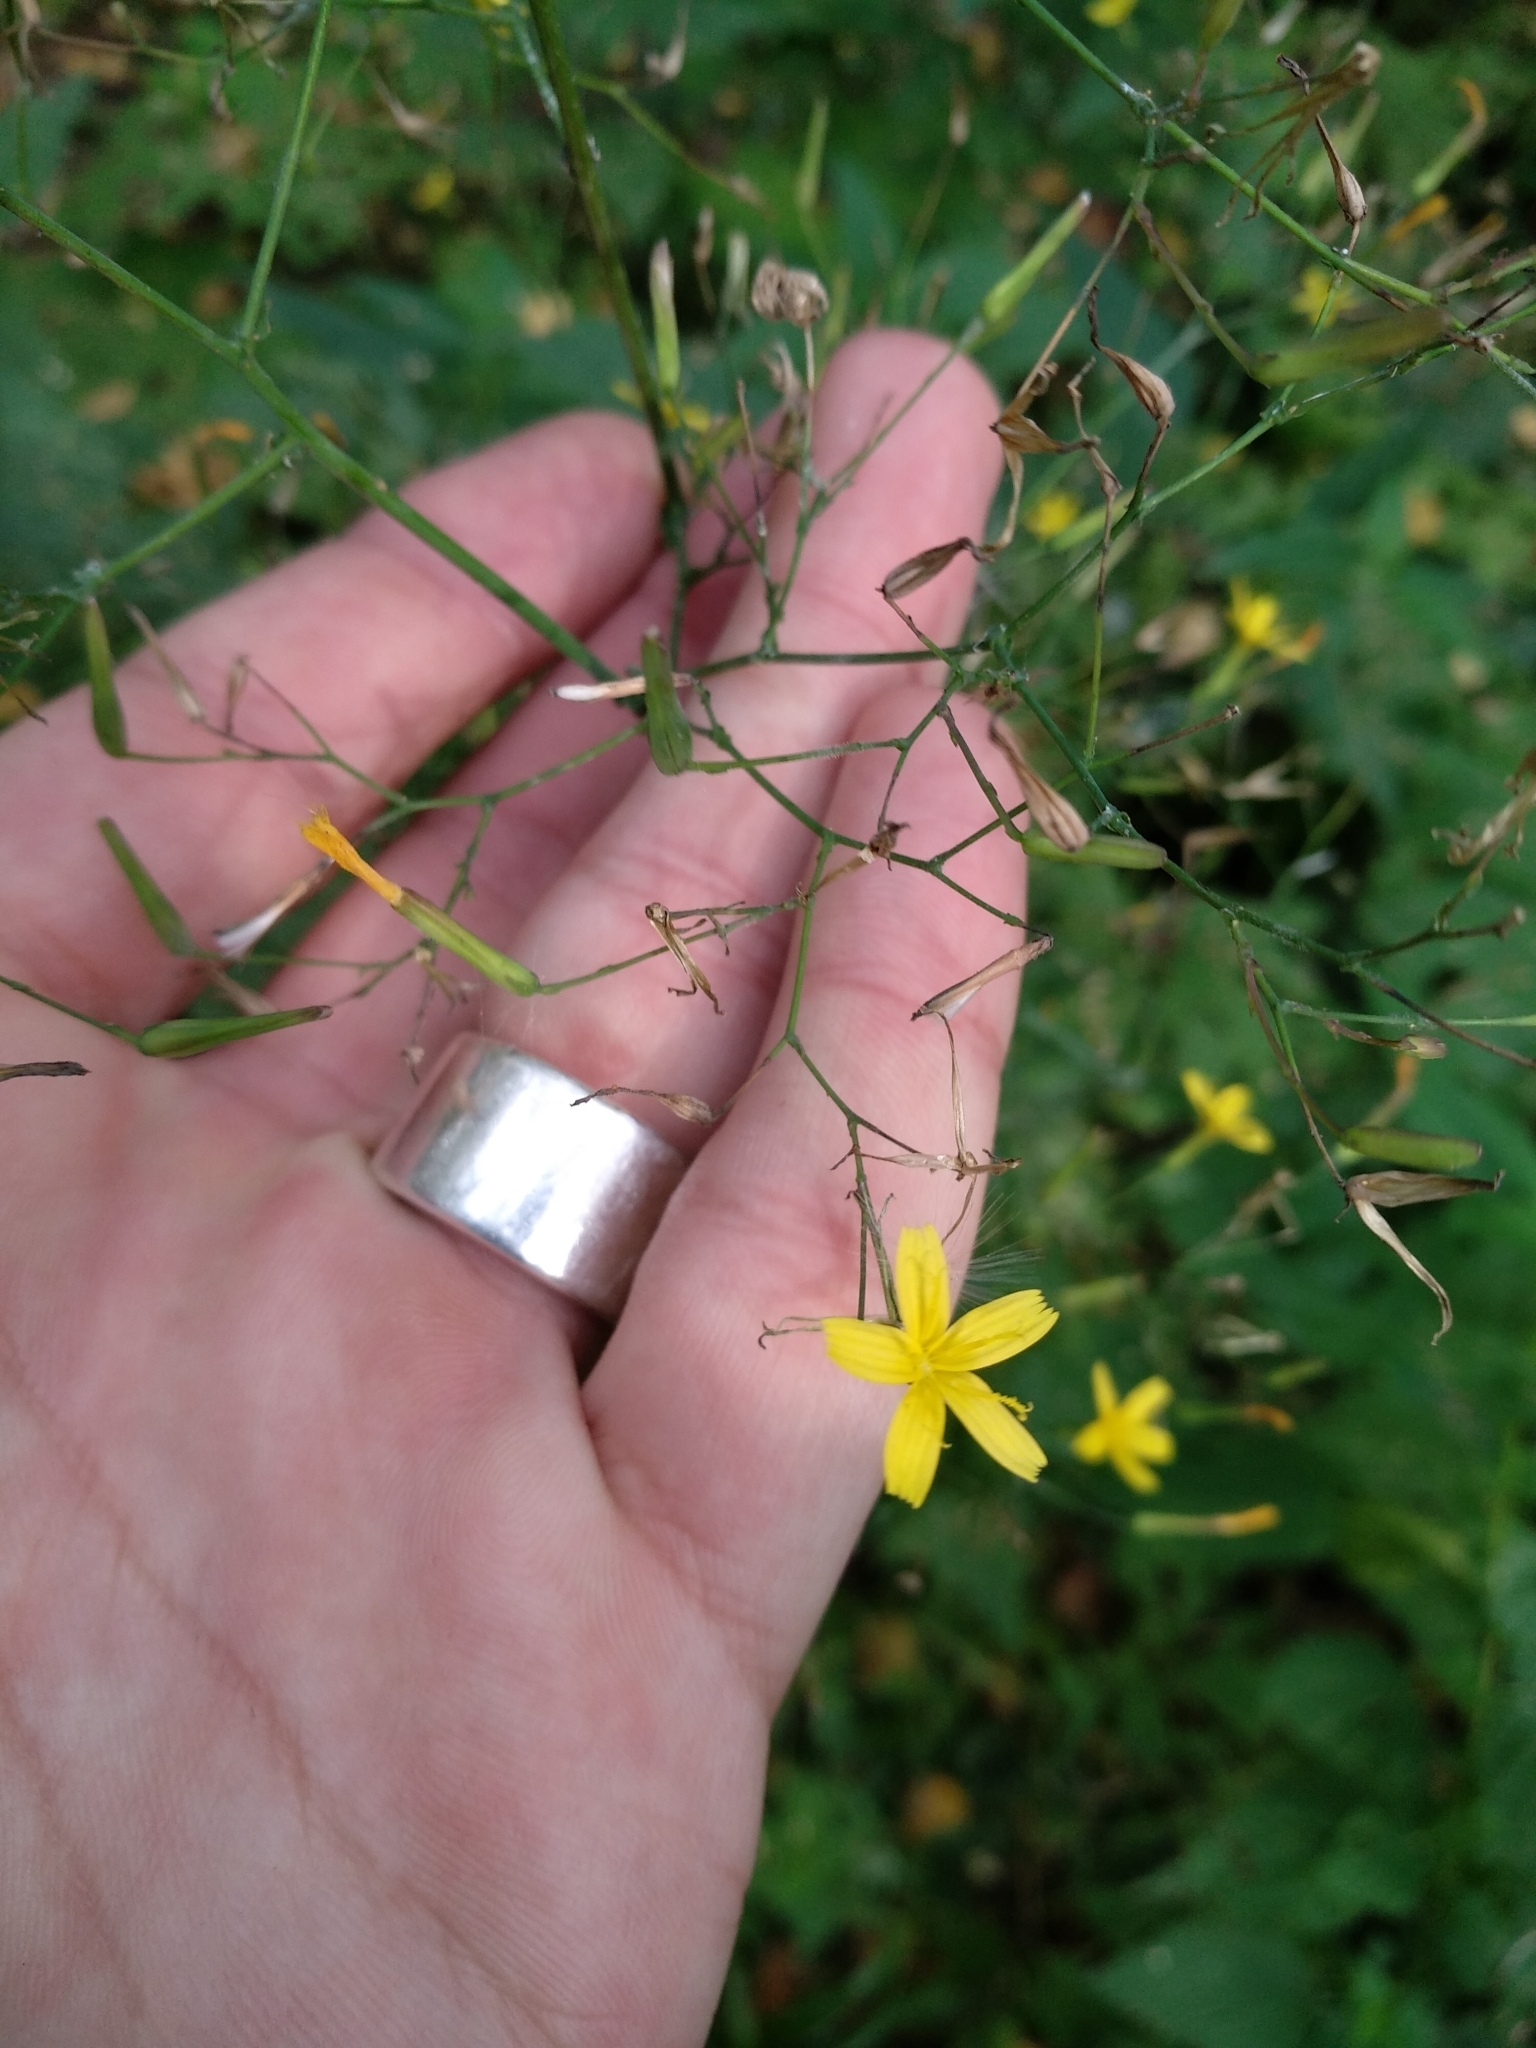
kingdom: Plantae
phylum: Tracheophyta
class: Magnoliopsida
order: Asterales
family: Asteraceae
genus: Mycelis
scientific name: Mycelis muralis
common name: Wall lettuce
